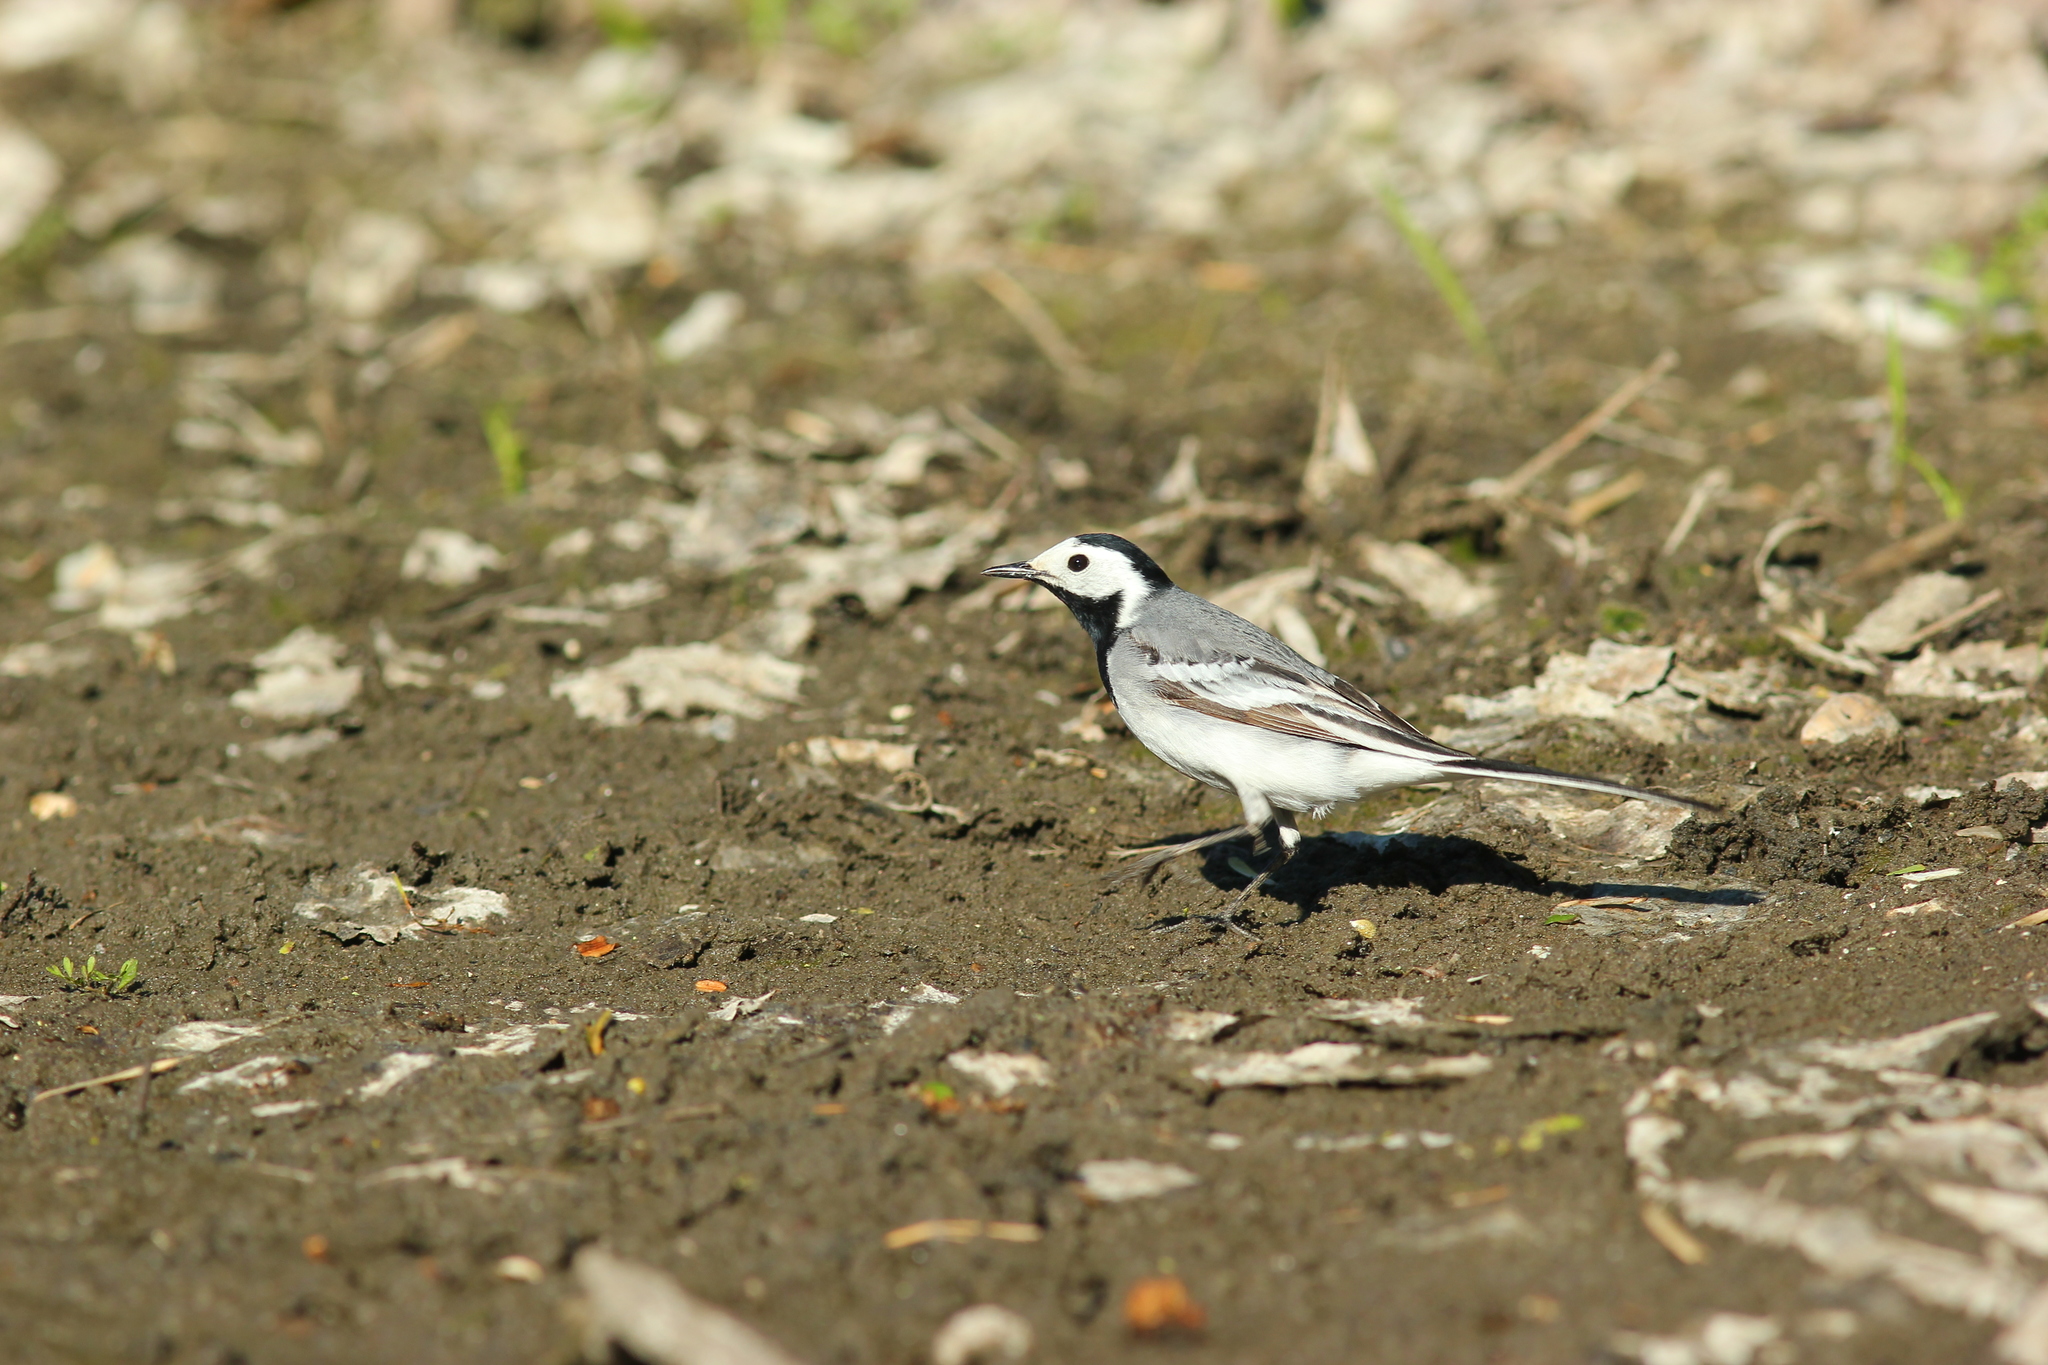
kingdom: Animalia
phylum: Chordata
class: Aves
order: Passeriformes
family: Motacillidae
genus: Motacilla
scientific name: Motacilla alba
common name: White wagtail
